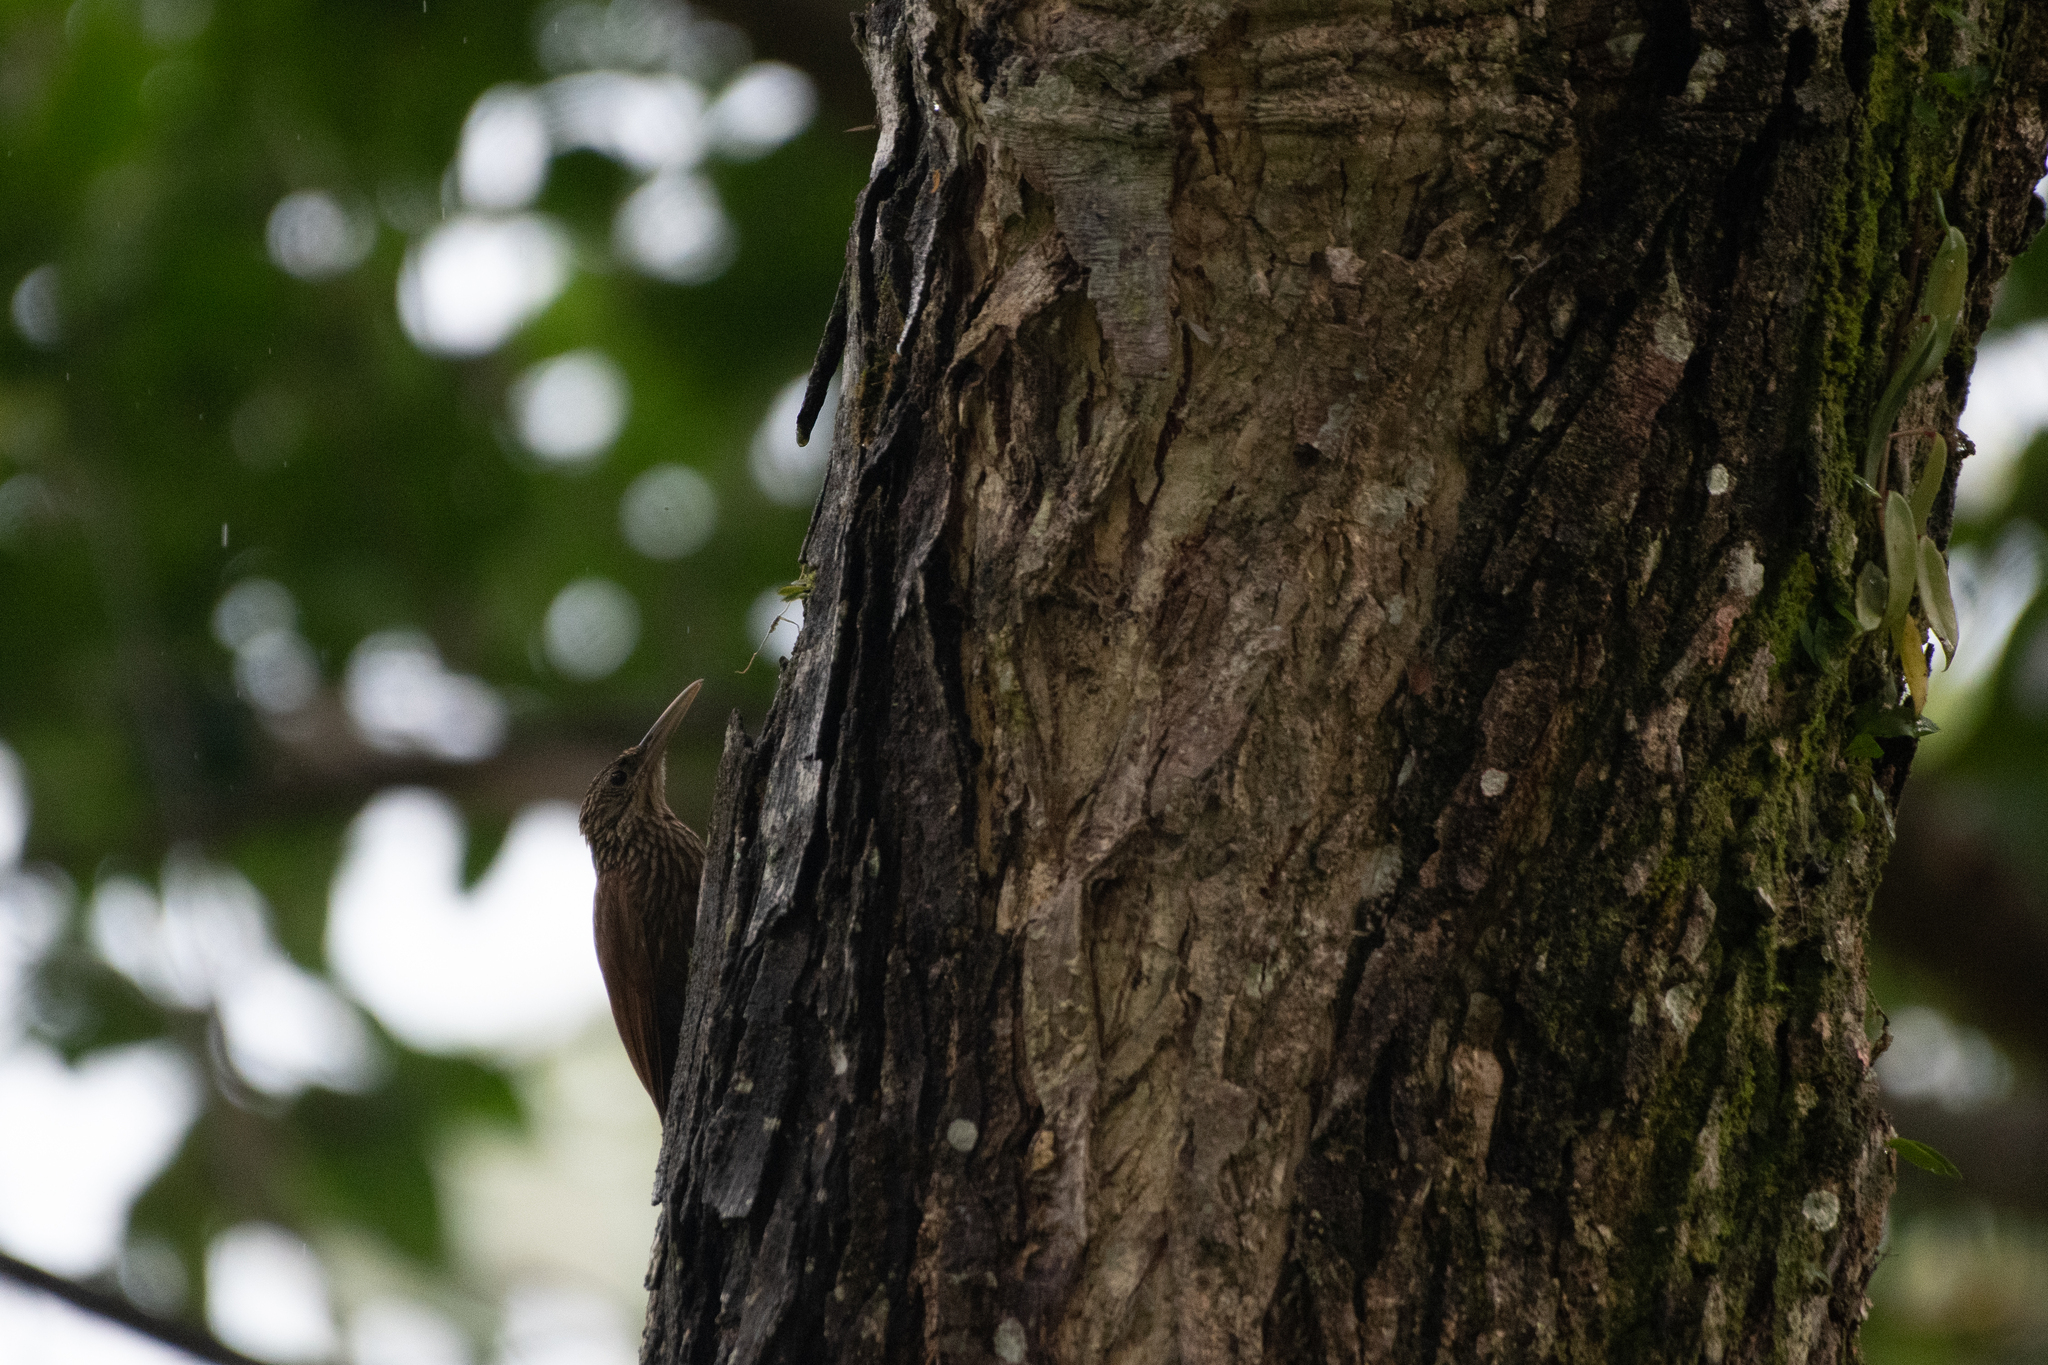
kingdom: Animalia
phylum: Chordata
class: Aves
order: Passeriformes
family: Furnariidae
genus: Xiphorhynchus
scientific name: Xiphorhynchus flavigaster
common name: Ivory-billed woodcreeper
